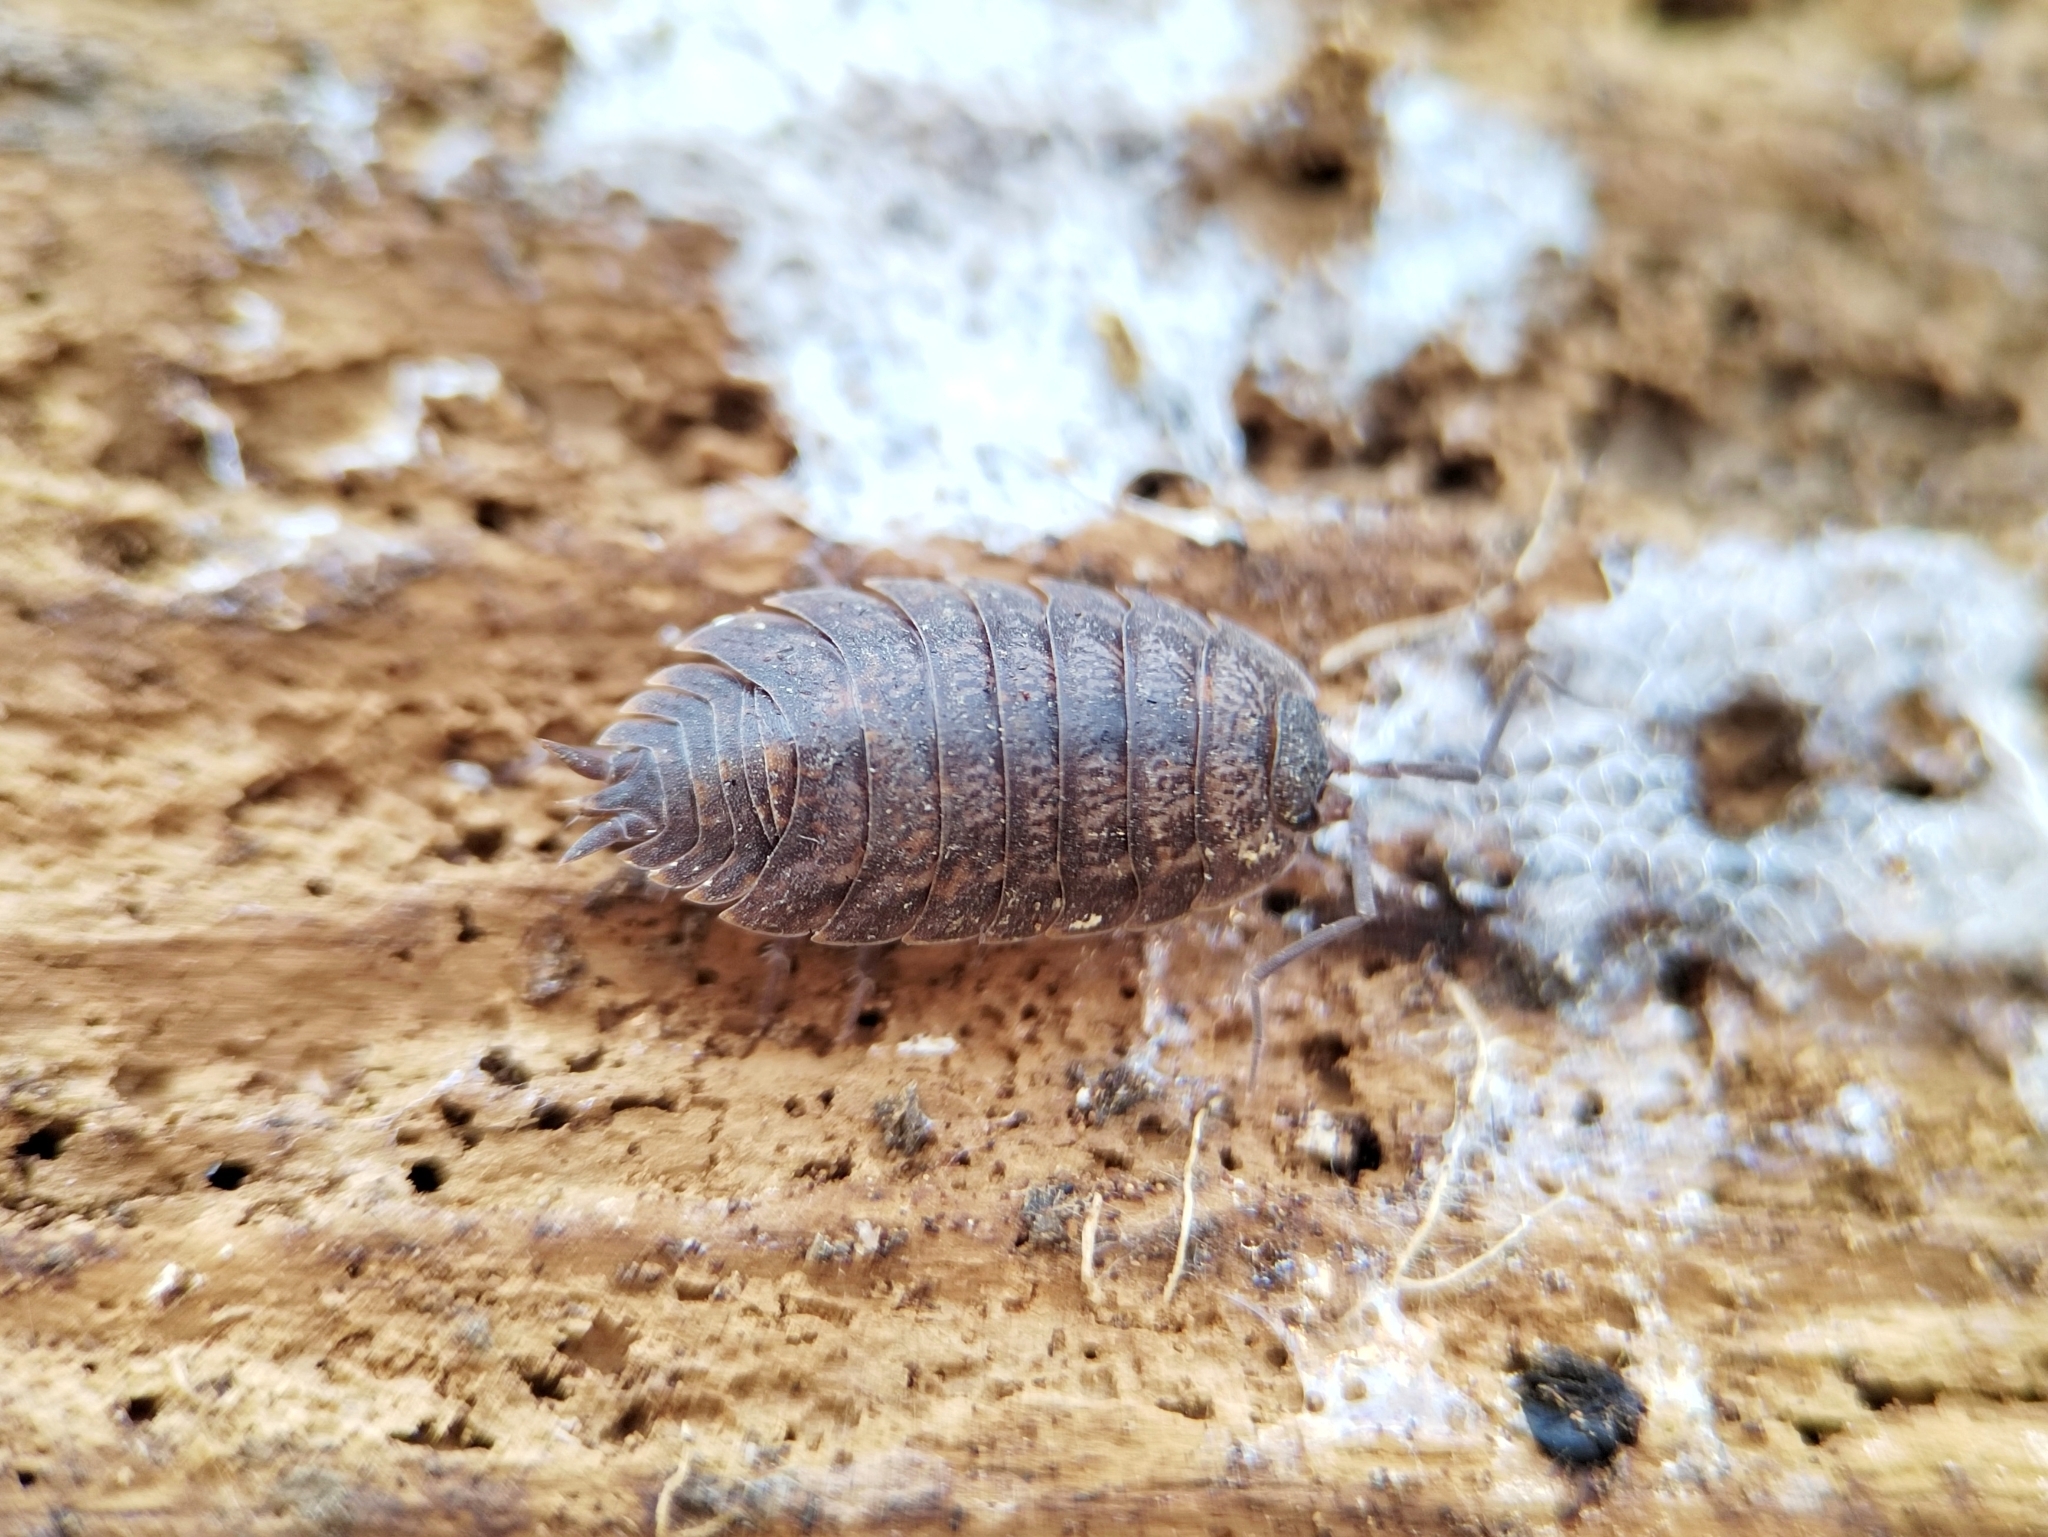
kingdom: Animalia
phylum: Arthropoda
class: Malacostraca
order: Isopoda
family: Trachelipodidae
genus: Trachelipus
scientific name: Trachelipus rathkii
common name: Isopod
